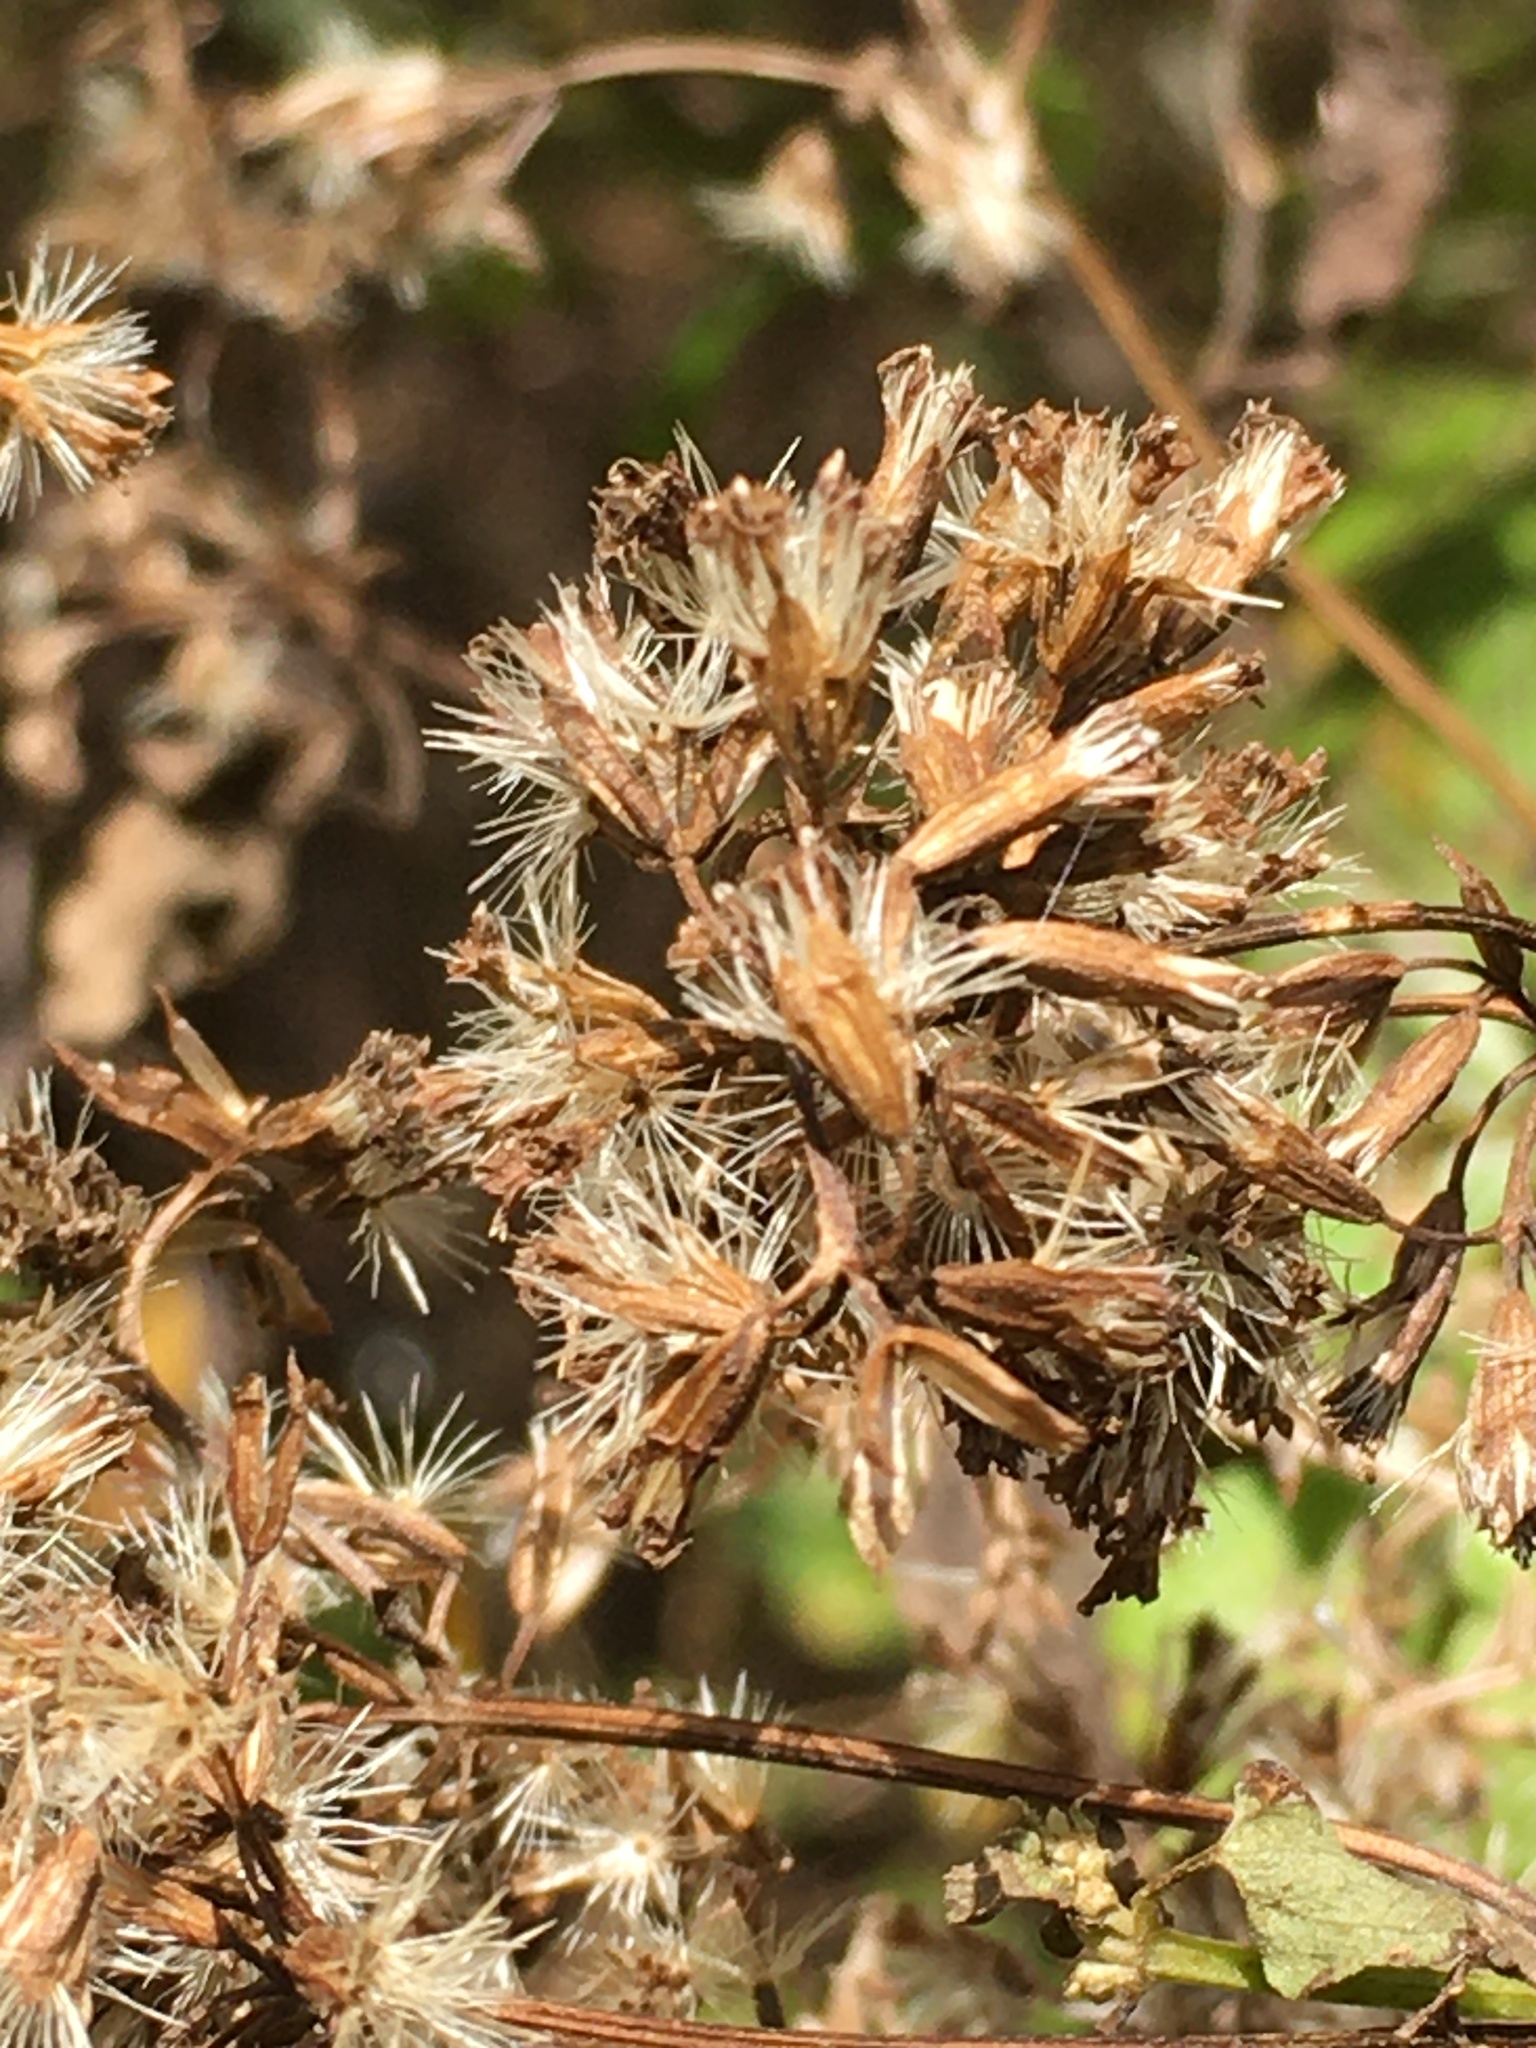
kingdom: Plantae
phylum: Tracheophyta
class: Magnoliopsida
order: Asterales
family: Asteraceae
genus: Mikania
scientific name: Mikania scandens
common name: Climbing hempvine
